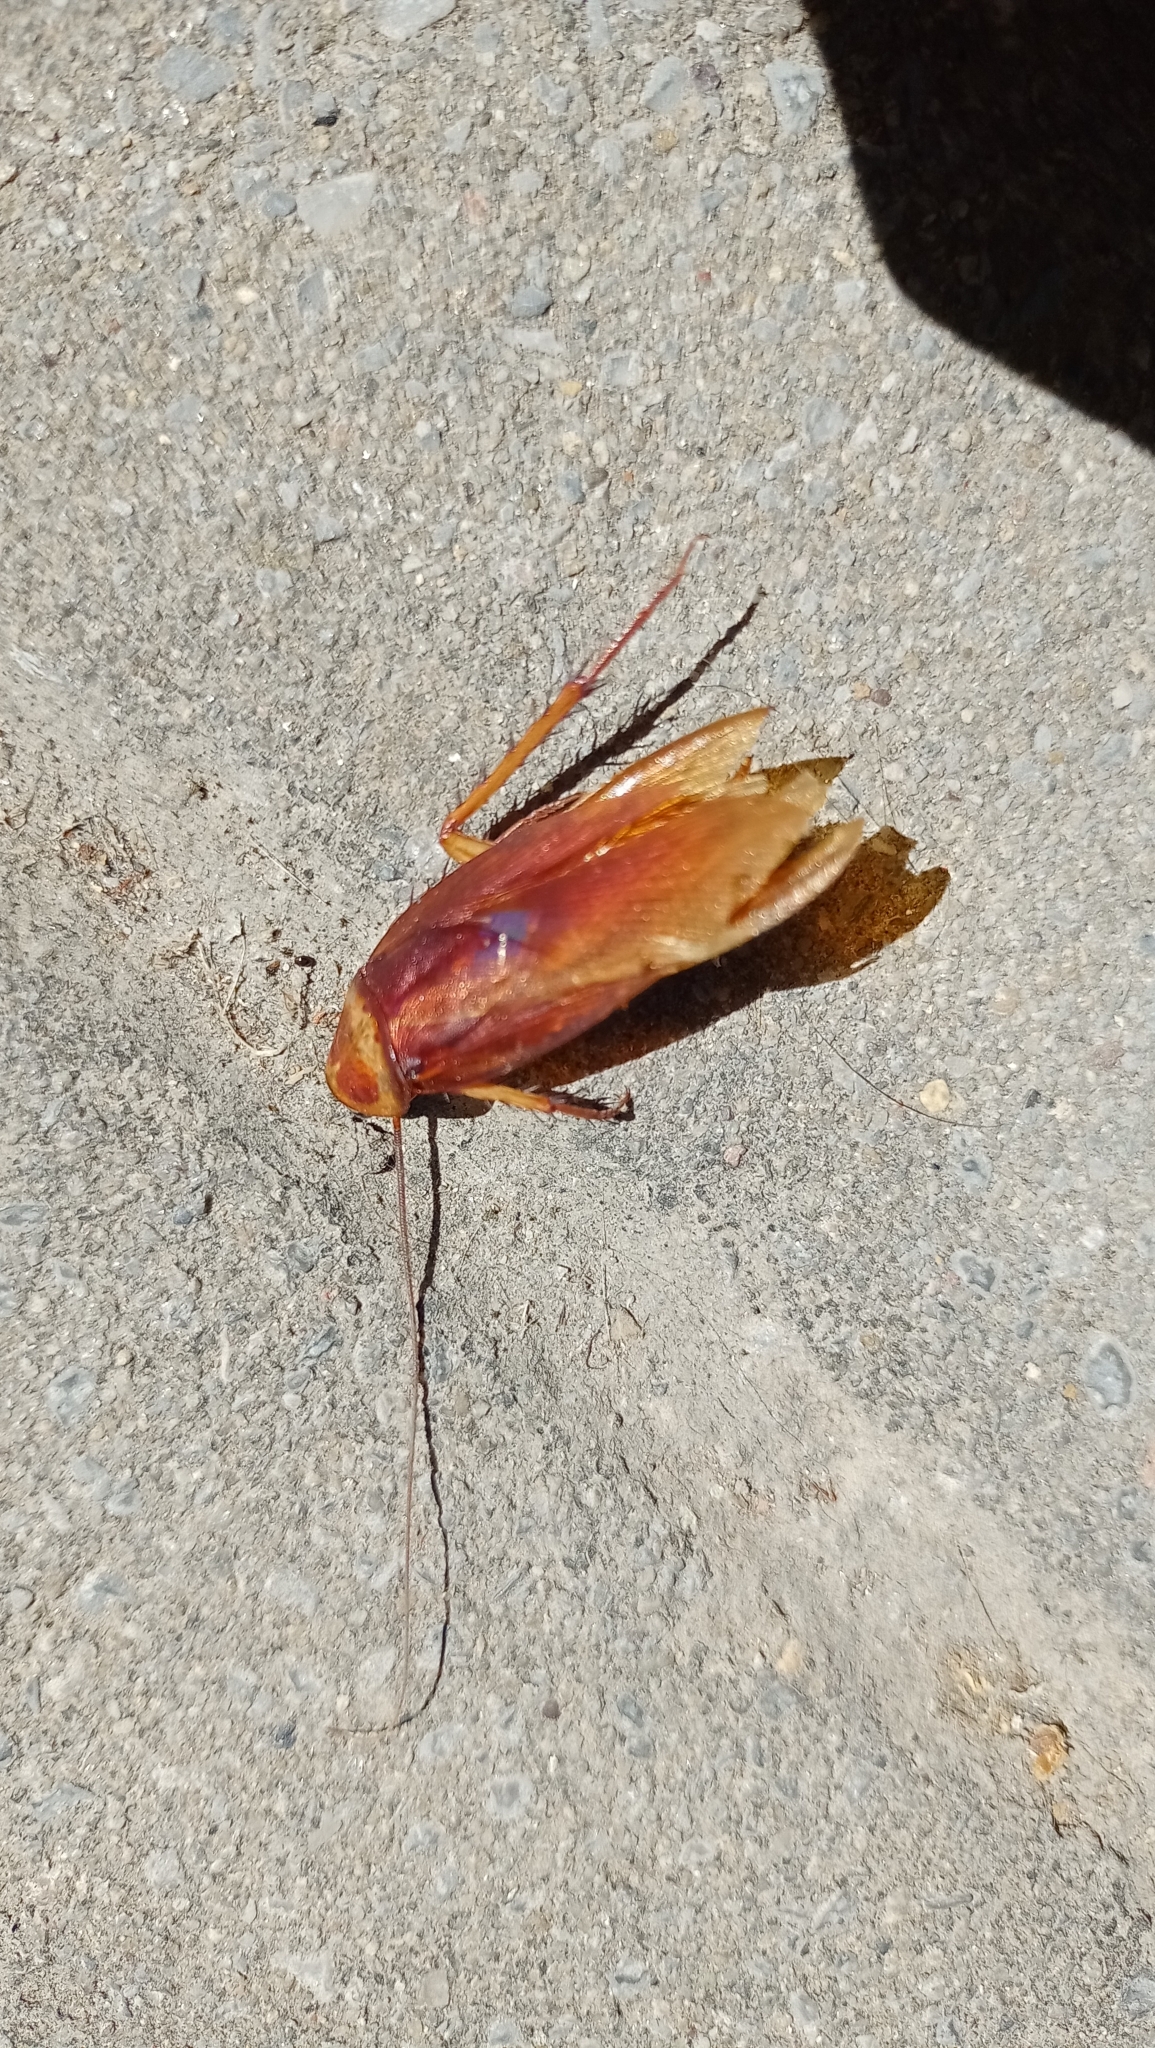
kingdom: Animalia
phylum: Arthropoda
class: Insecta
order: Blattodea
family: Blattidae
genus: Periplaneta
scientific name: Periplaneta americana
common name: American cockroach
